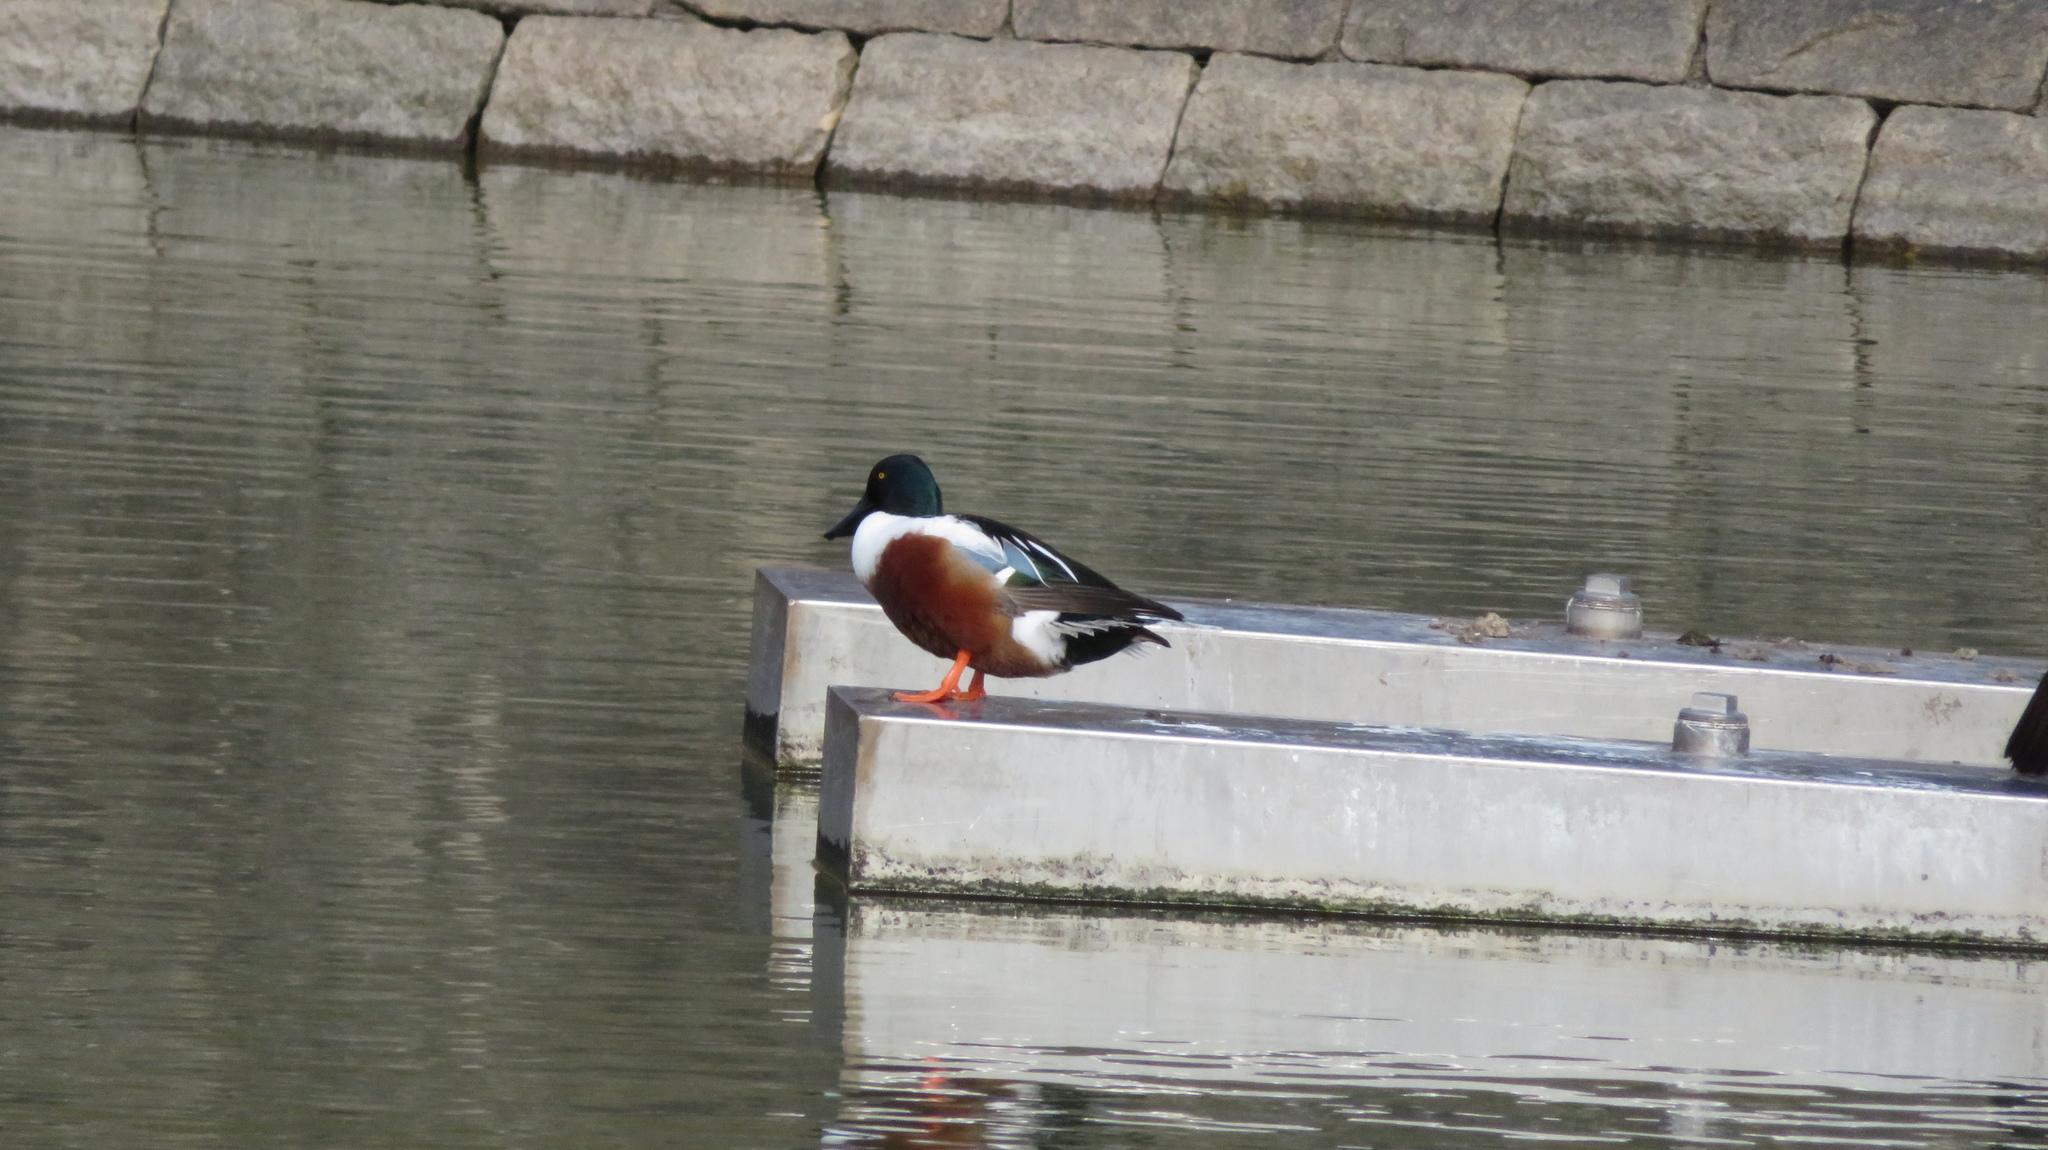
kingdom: Animalia
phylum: Chordata
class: Aves
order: Anseriformes
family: Anatidae
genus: Spatula
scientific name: Spatula clypeata
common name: Northern shoveler
